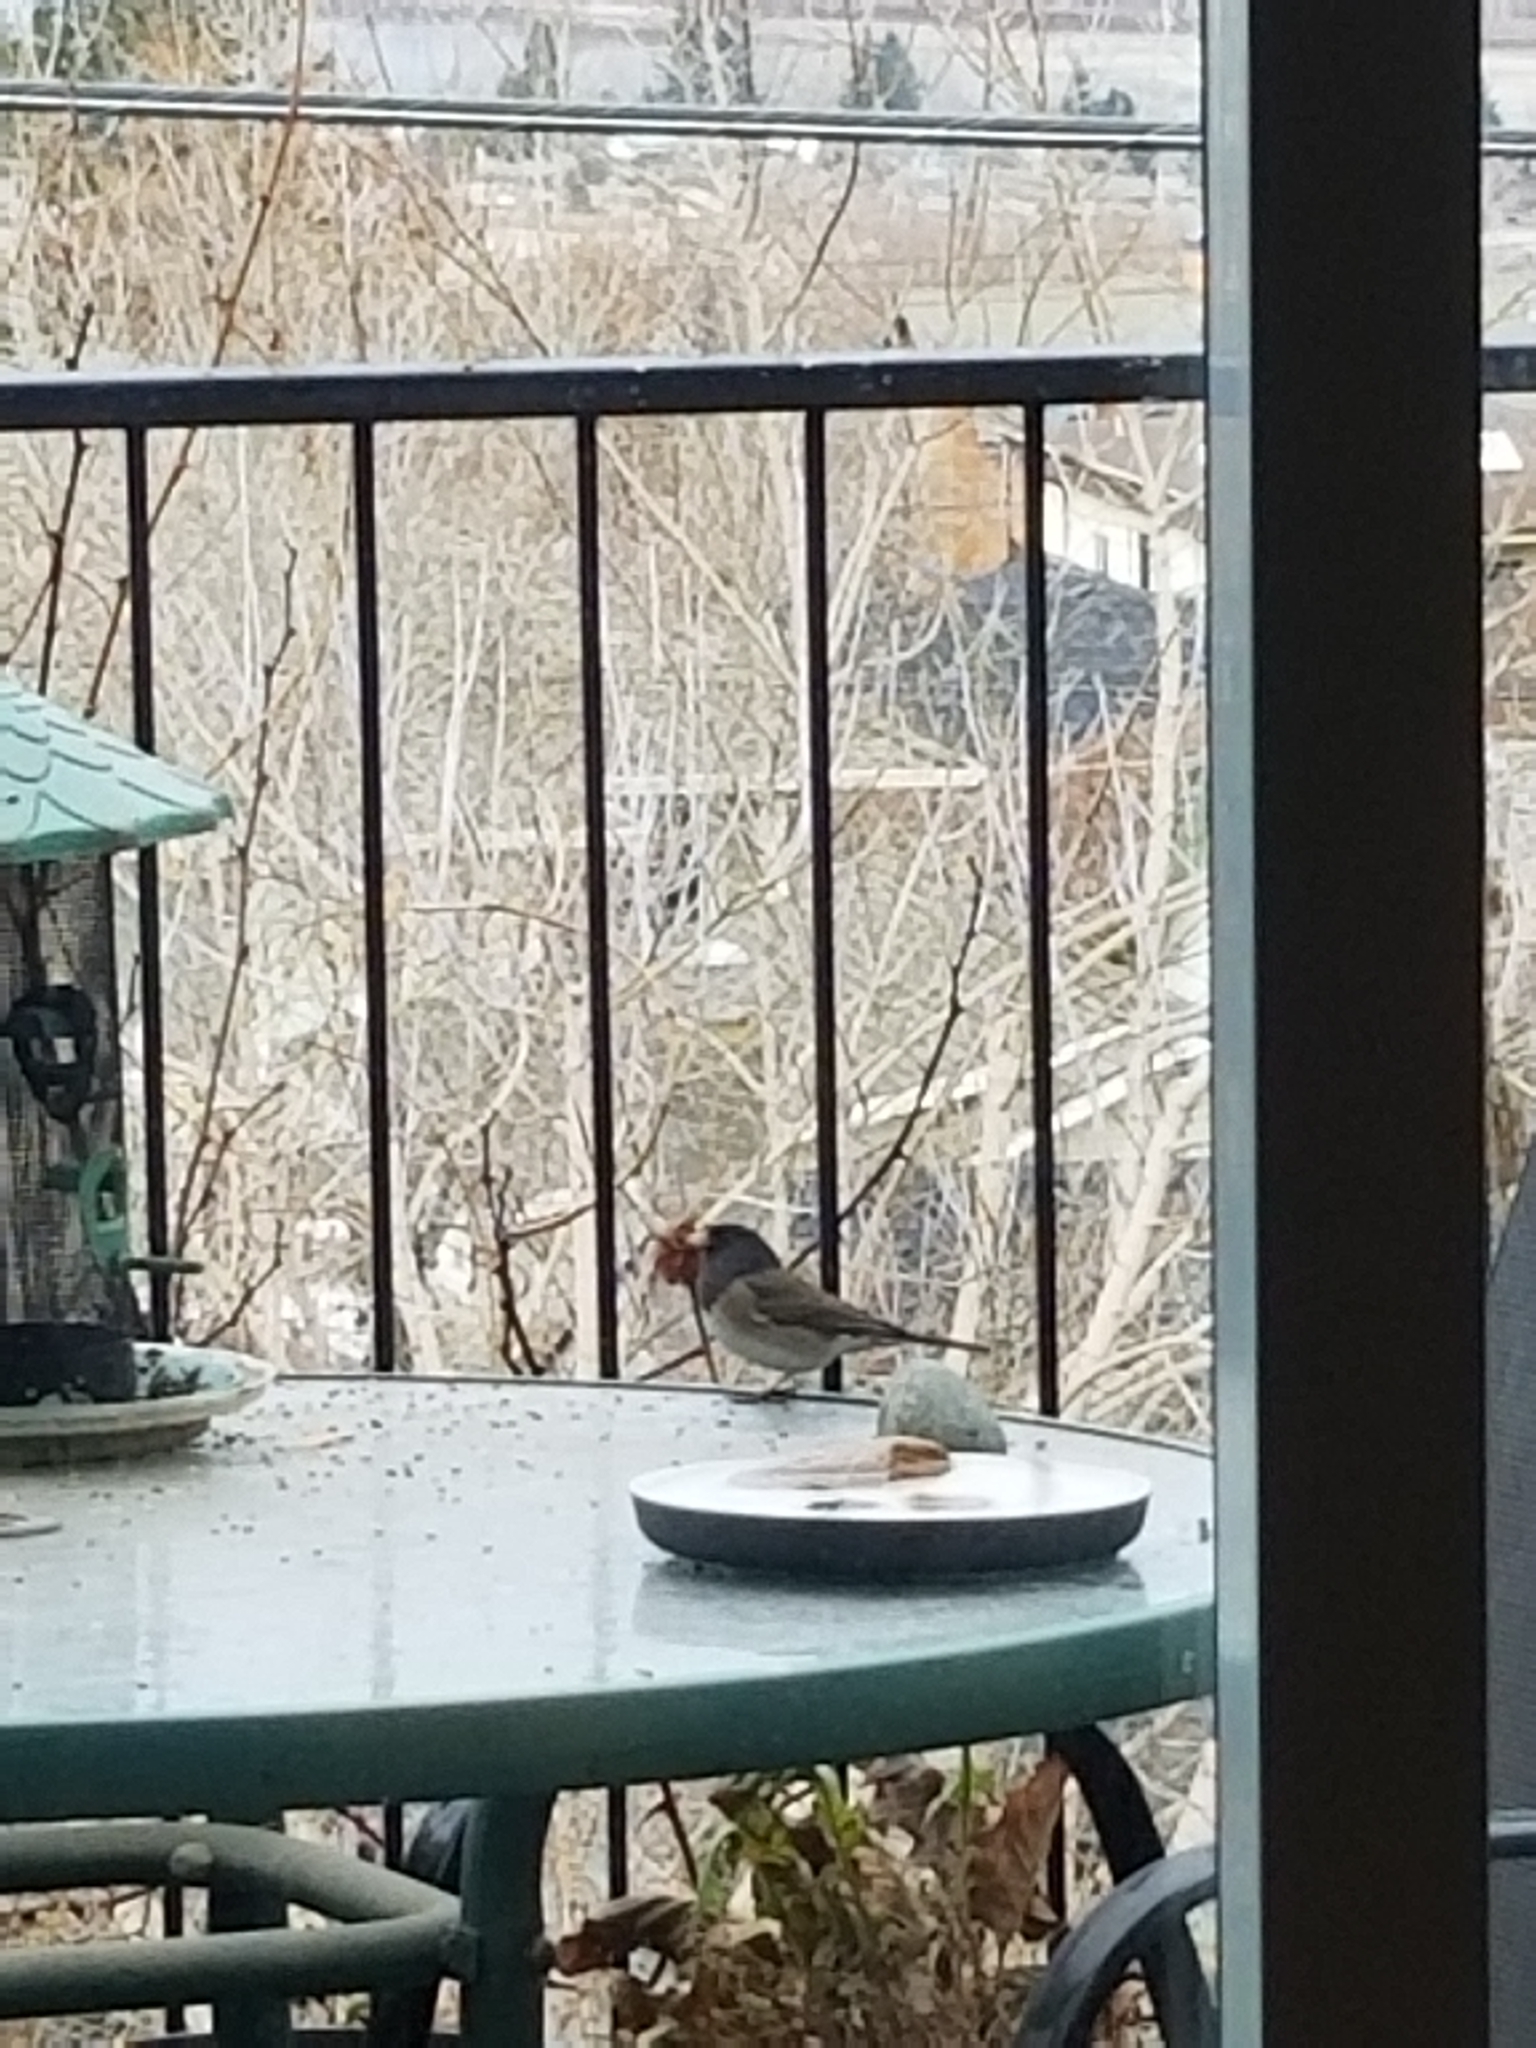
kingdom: Animalia
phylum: Chordata
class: Aves
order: Passeriformes
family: Passerellidae
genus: Junco
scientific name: Junco hyemalis
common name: Dark-eyed junco
